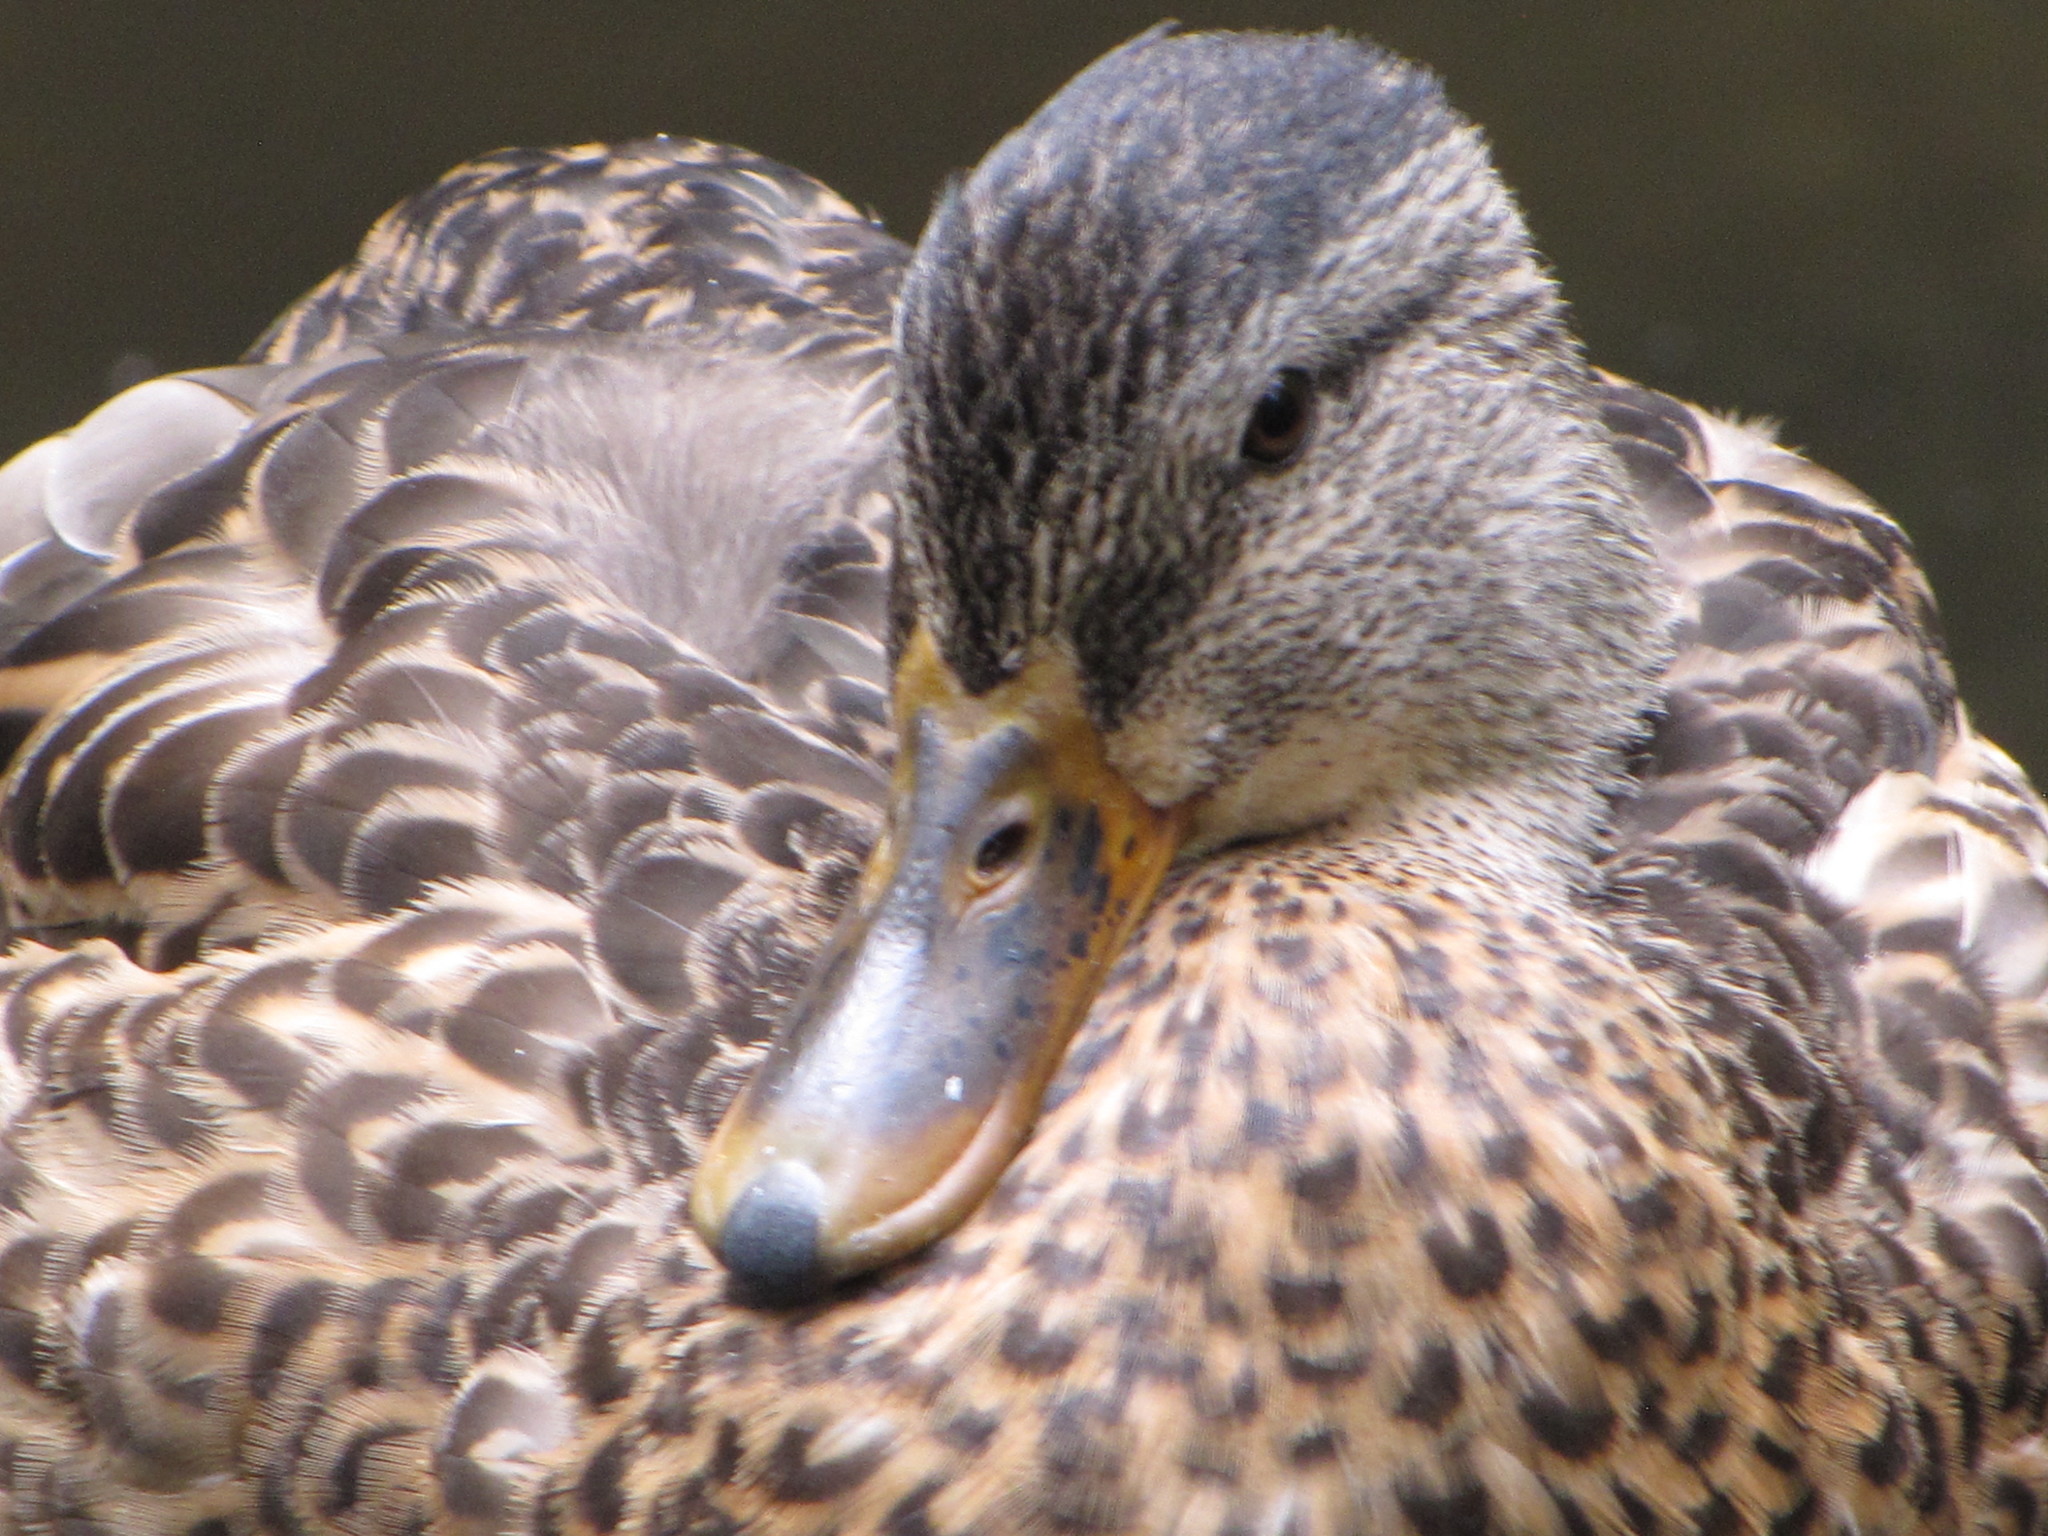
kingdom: Animalia
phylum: Chordata
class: Aves
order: Anseriformes
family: Anatidae
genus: Anas
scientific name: Anas platyrhynchos
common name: Mallard
